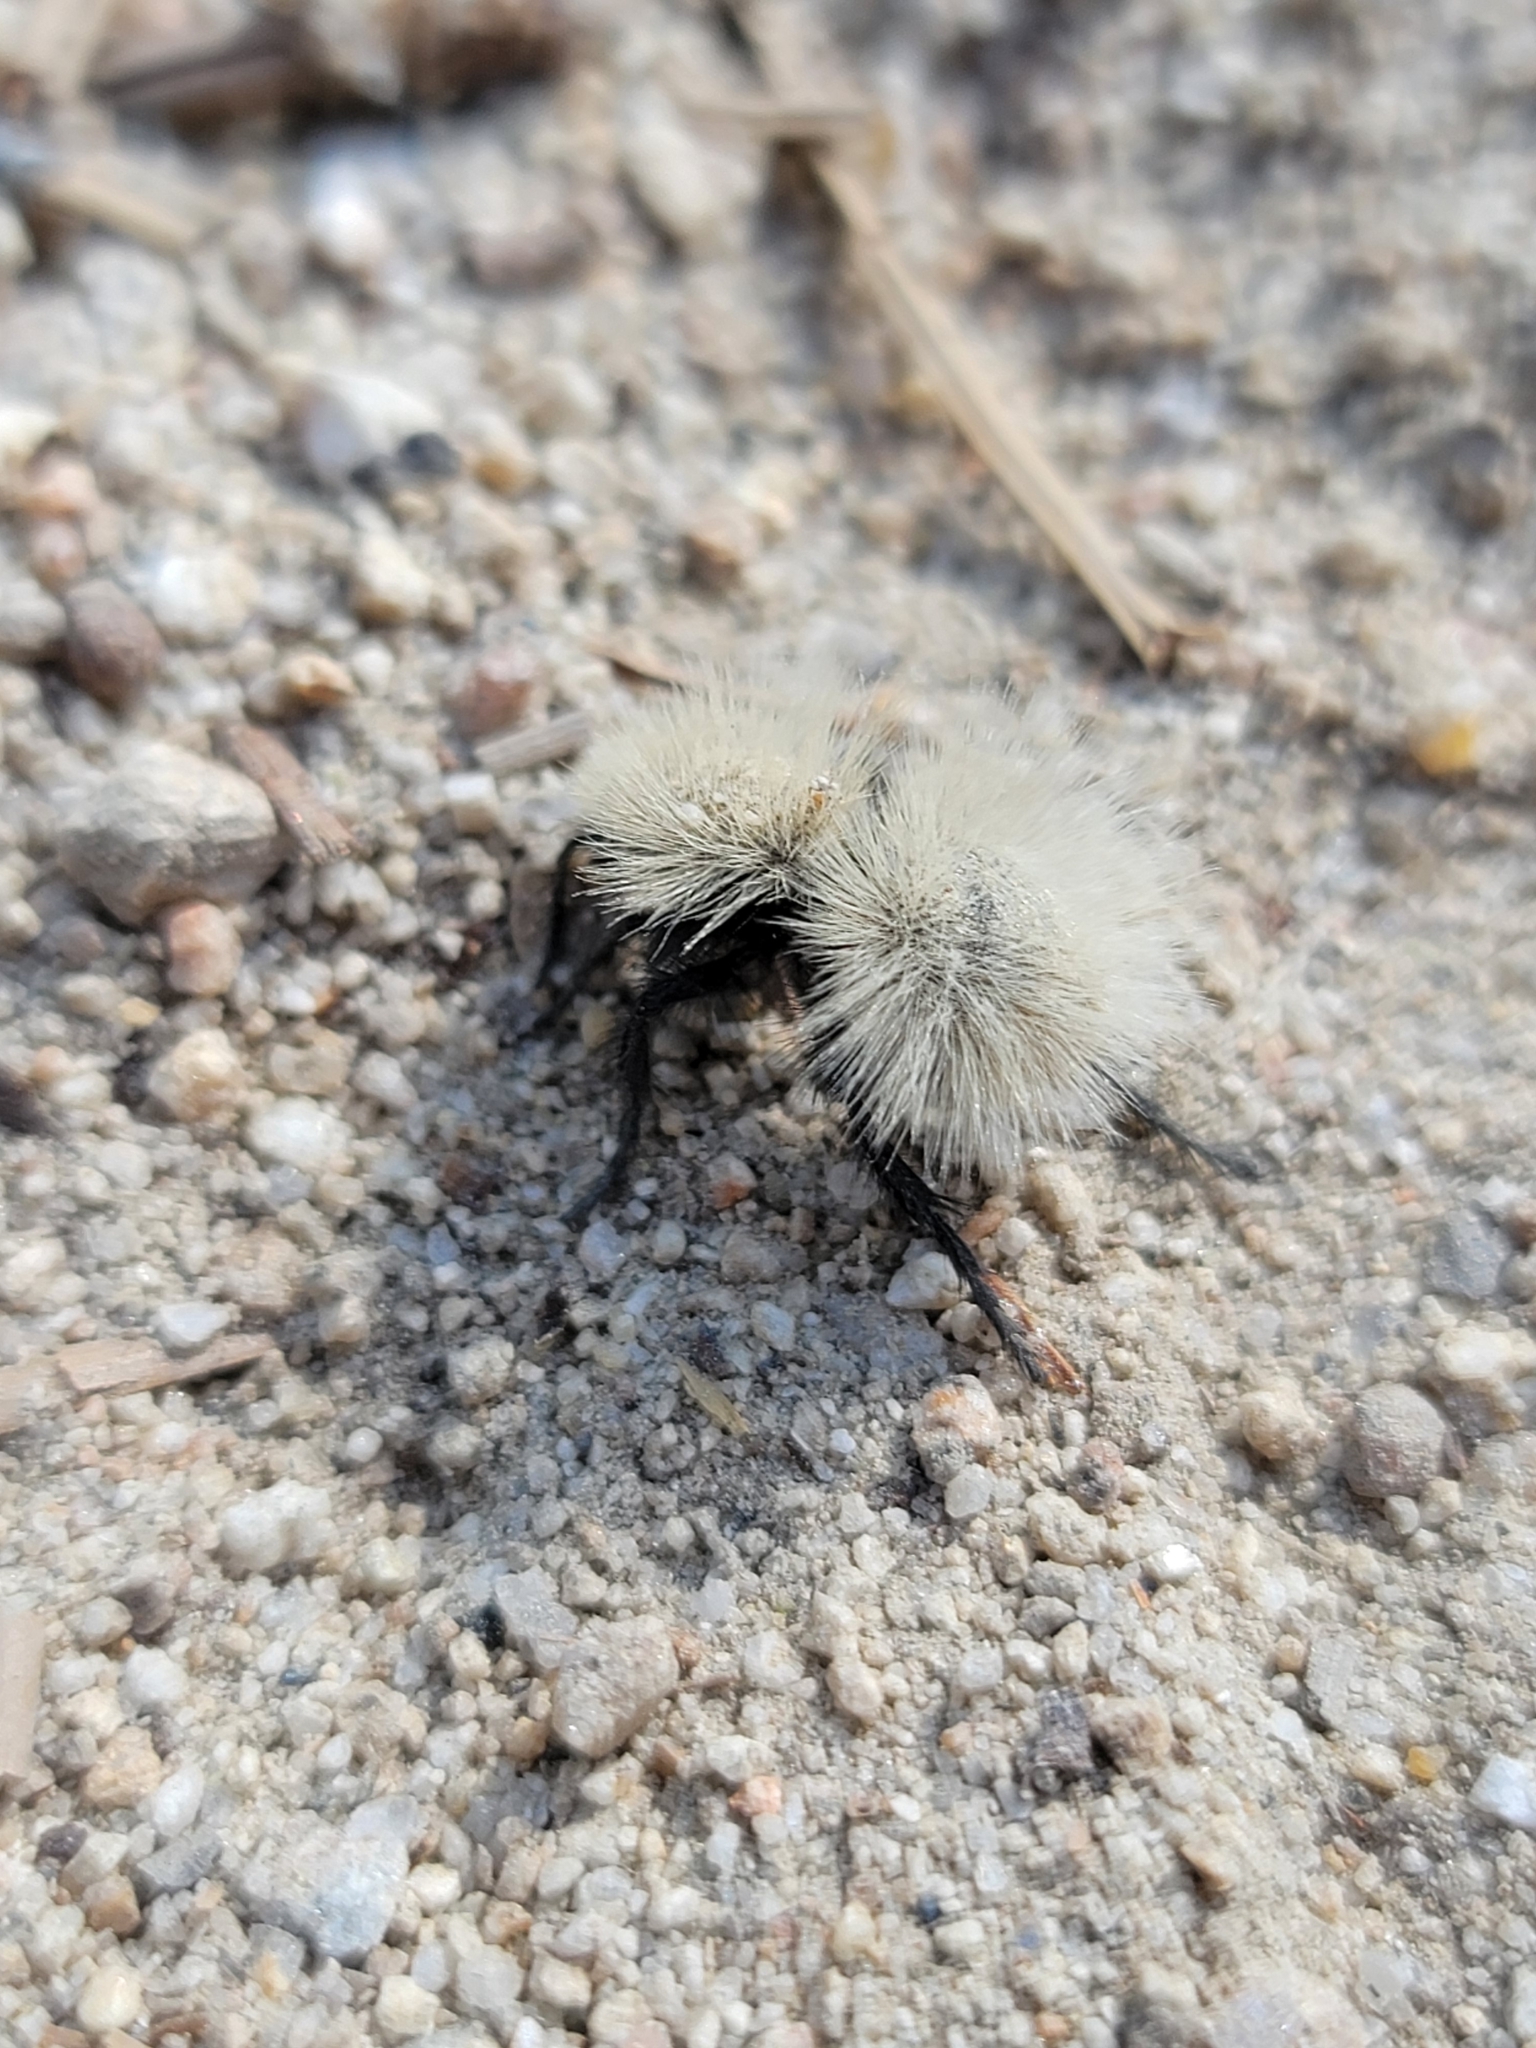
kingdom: Animalia
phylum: Arthropoda
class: Insecta
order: Hymenoptera
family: Mutillidae
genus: Dasymutilla
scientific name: Dasymutilla
